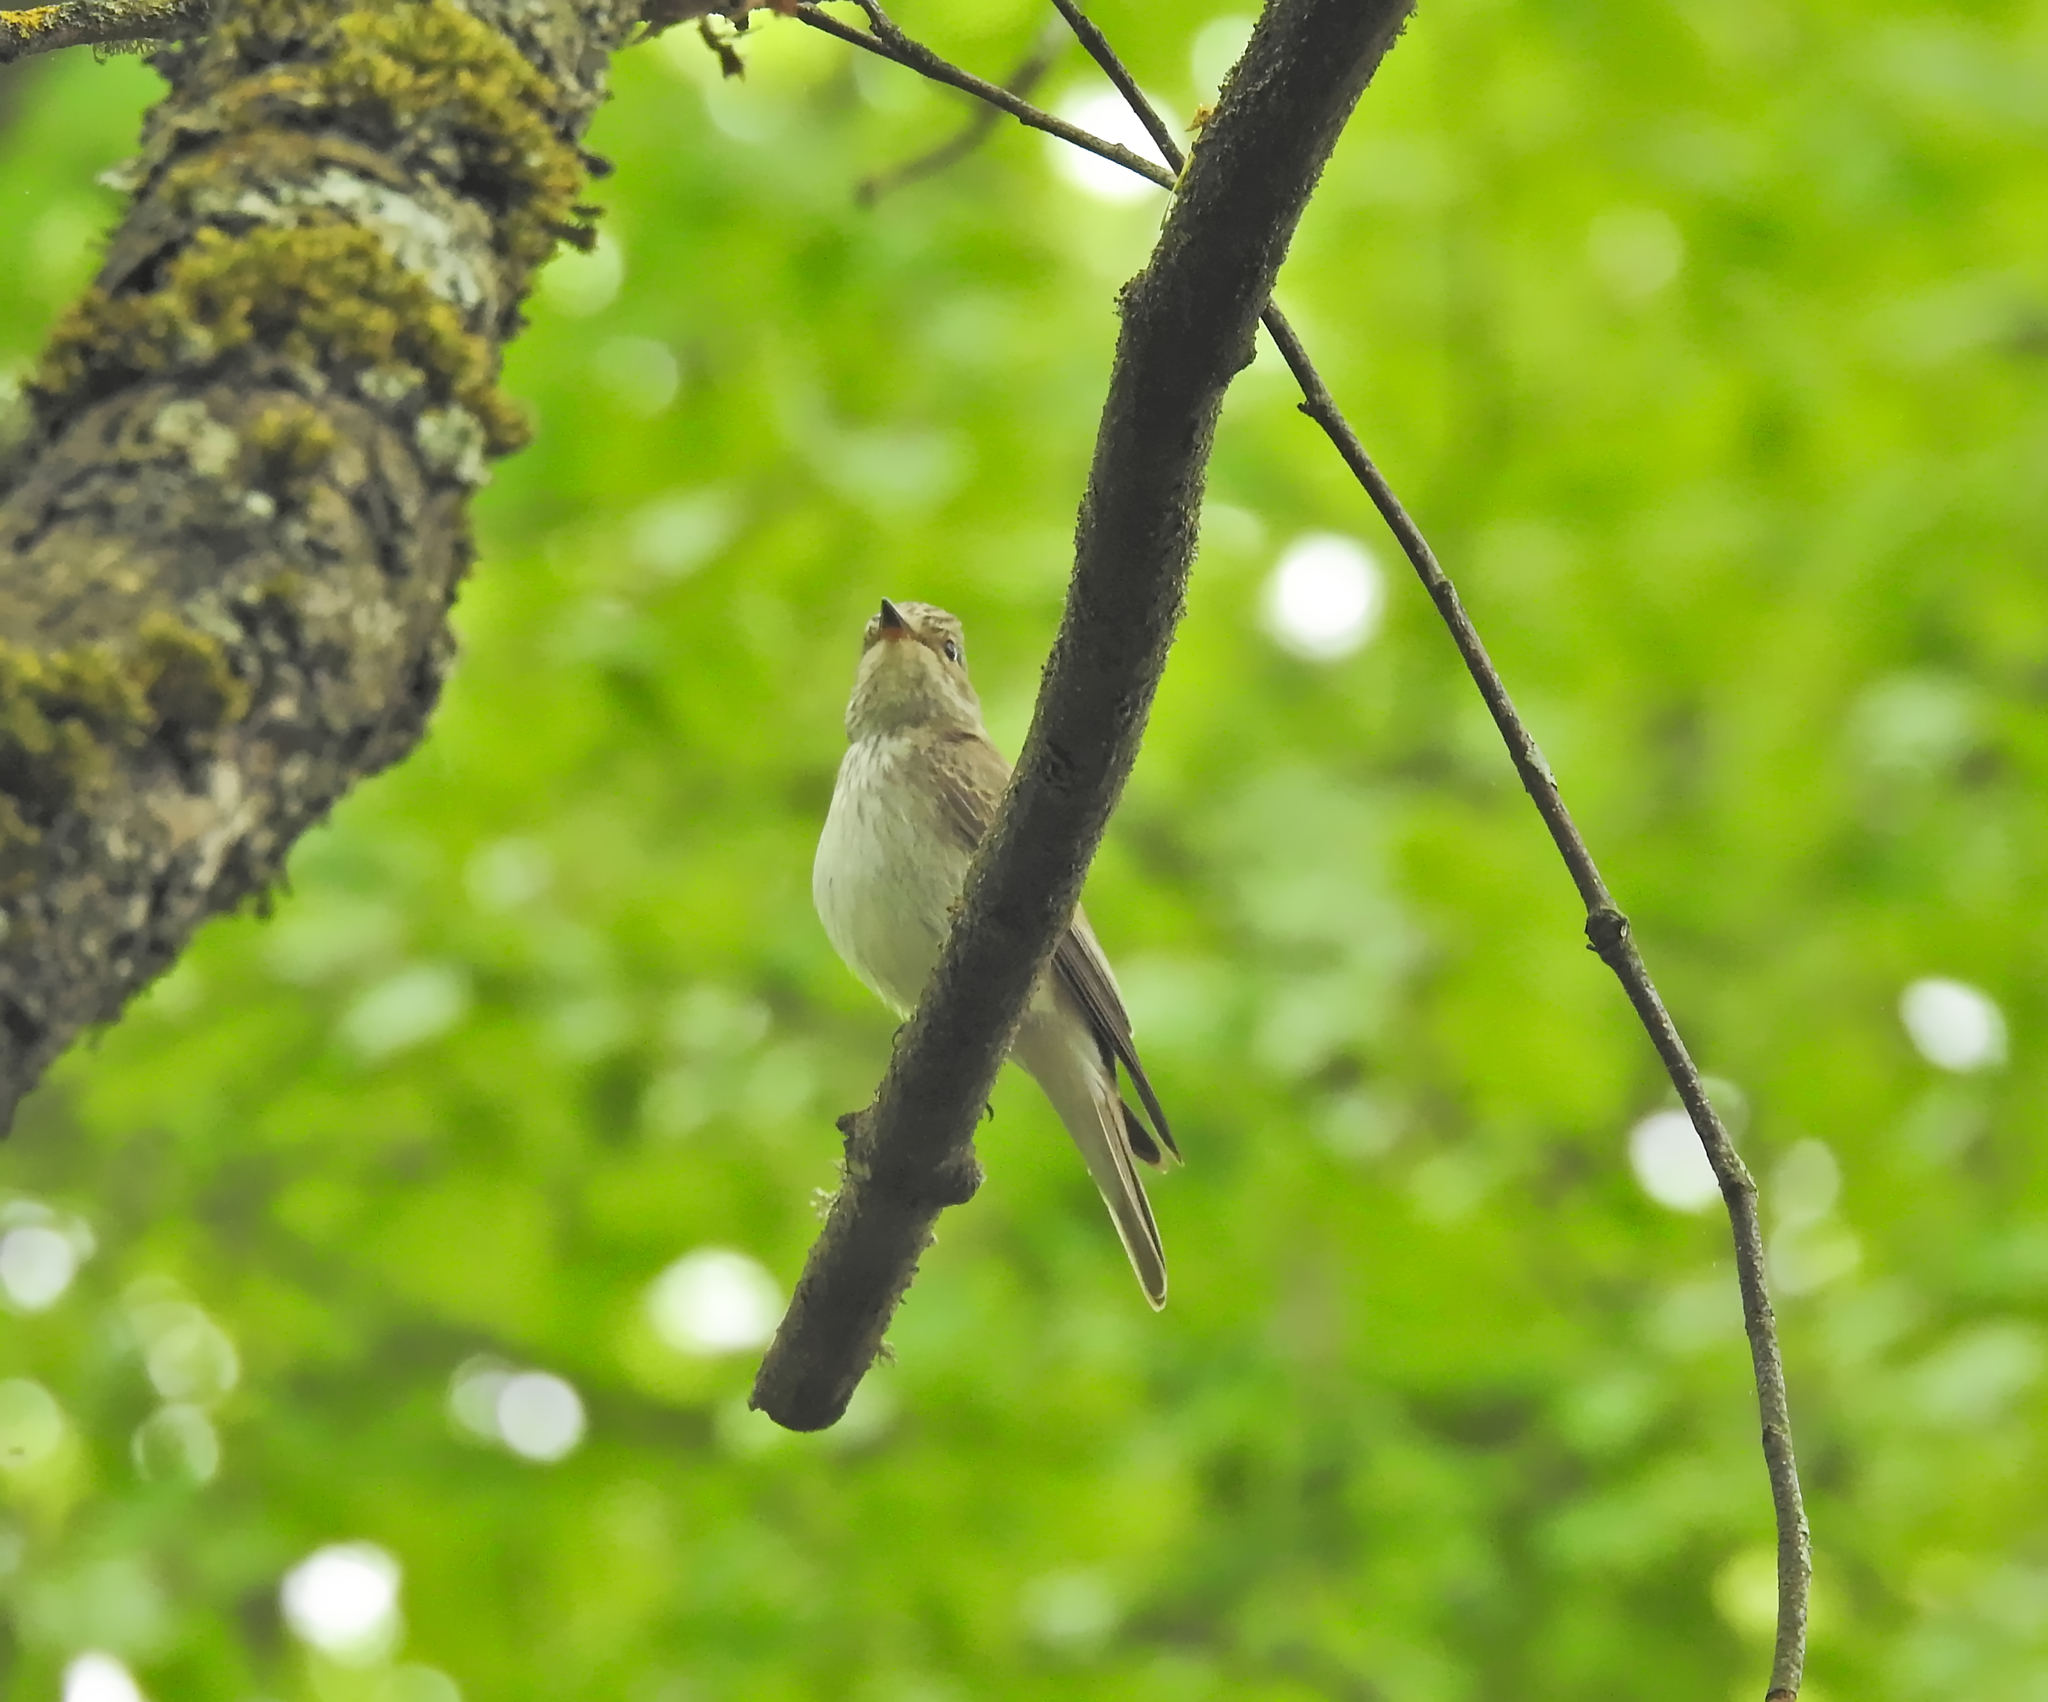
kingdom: Animalia
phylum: Chordata
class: Aves
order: Passeriformes
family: Muscicapidae
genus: Muscicapa
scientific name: Muscicapa striata
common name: Spotted flycatcher
